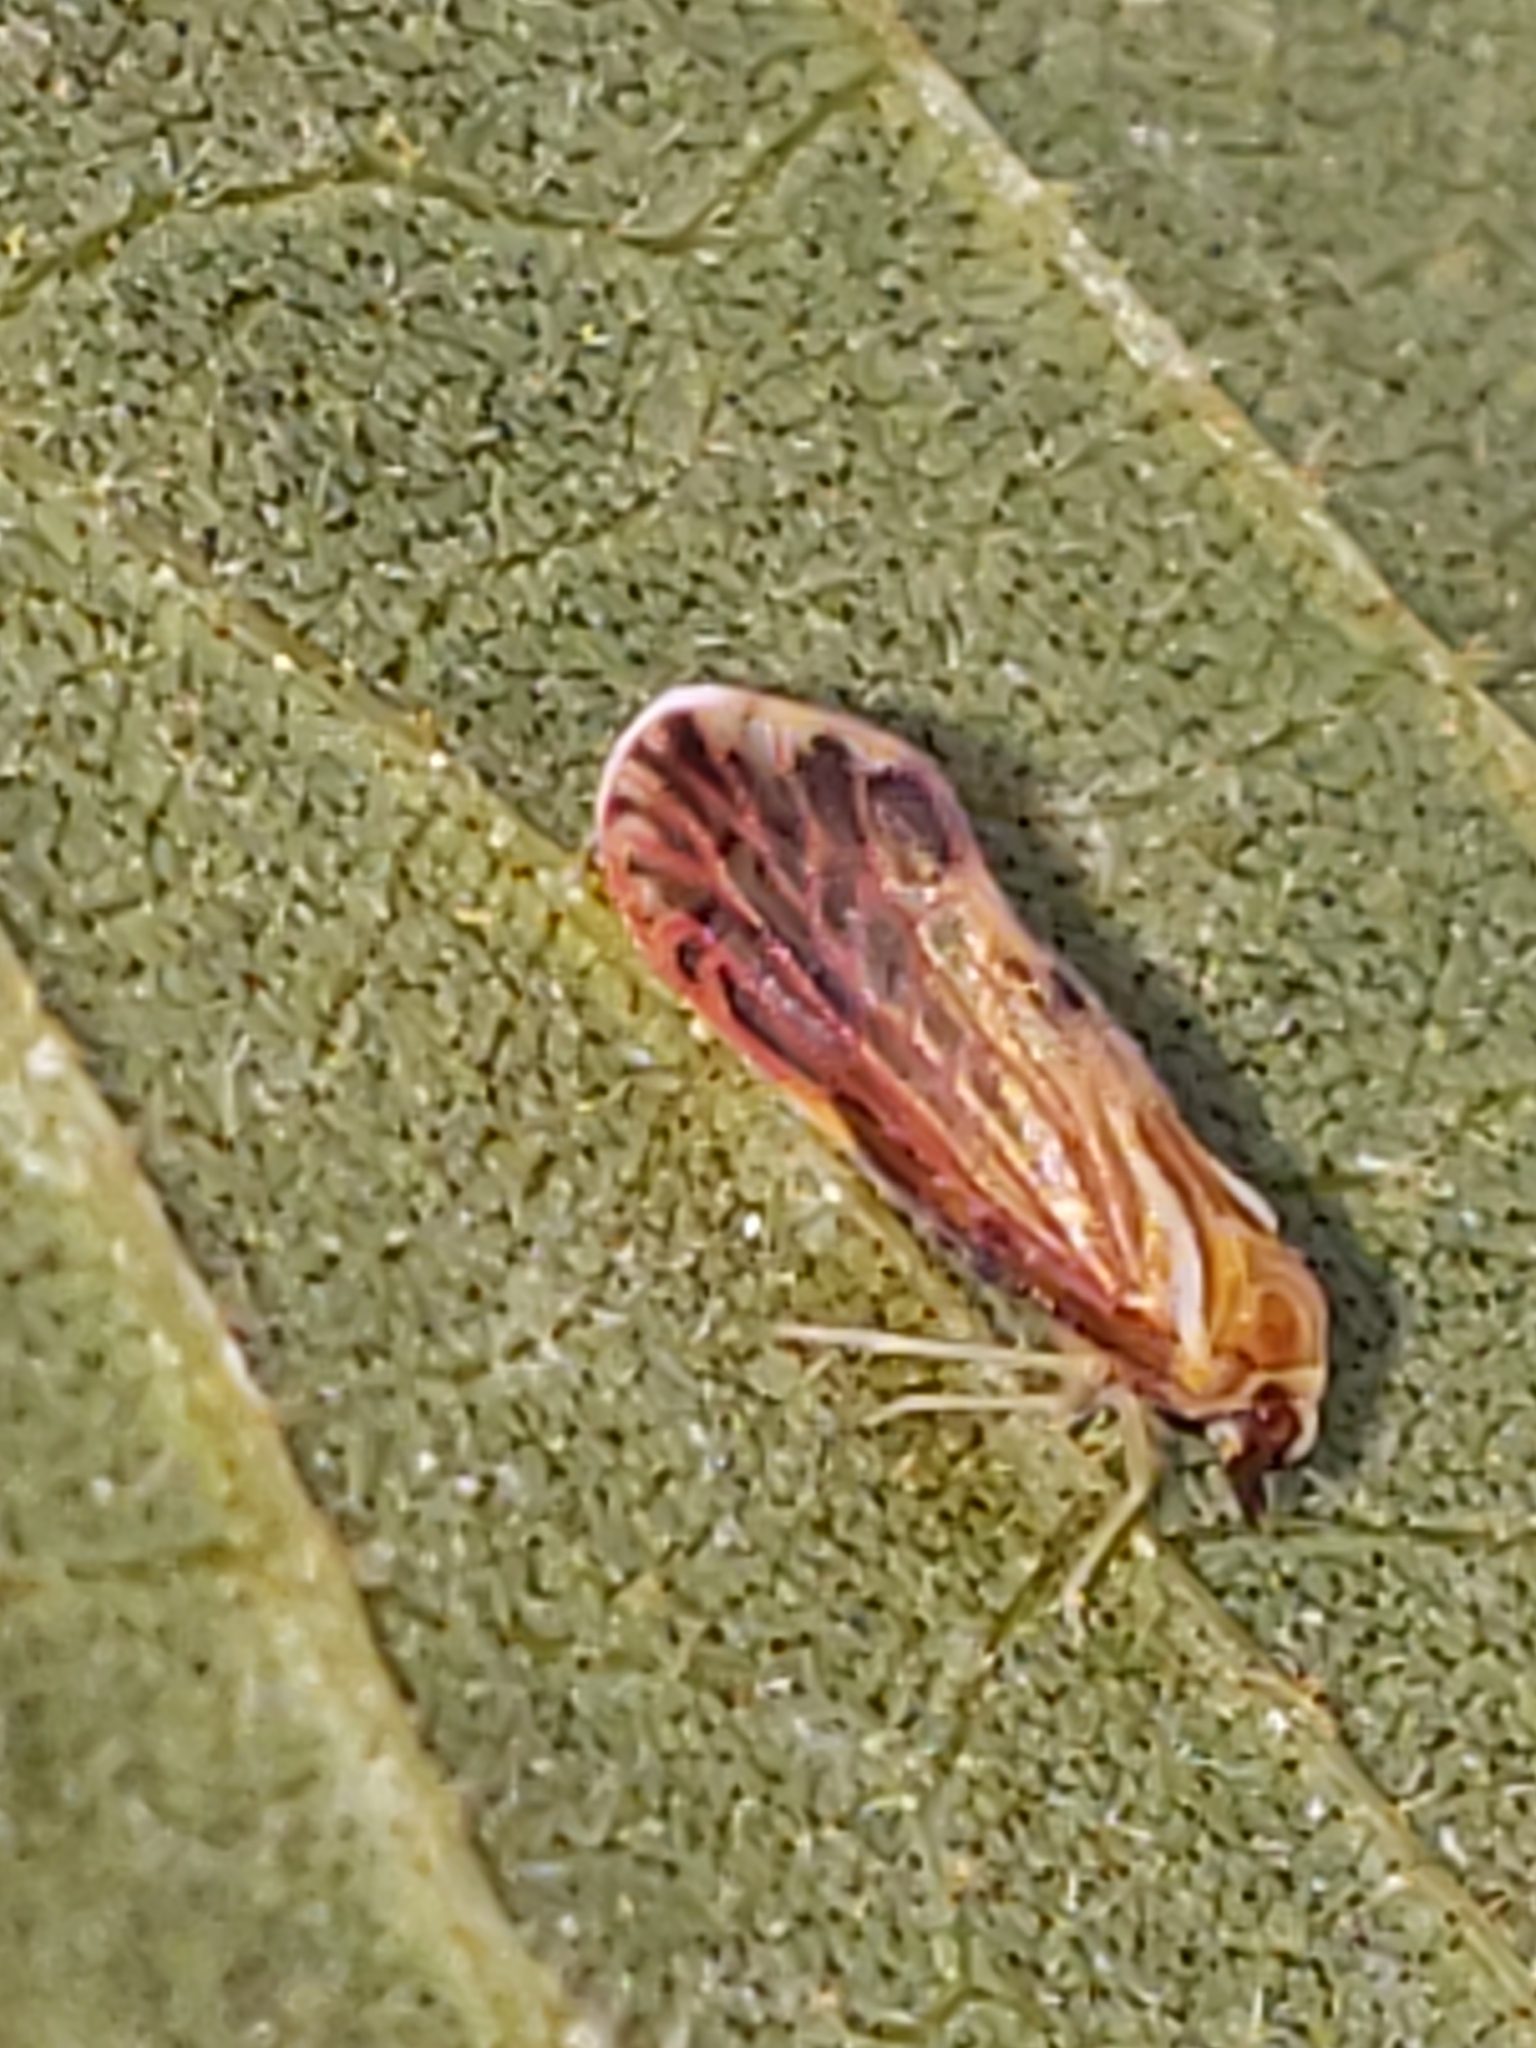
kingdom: Animalia
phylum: Arthropoda
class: Insecta
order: Hemiptera
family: Derbidae
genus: Patara
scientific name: Patara vanduzei
